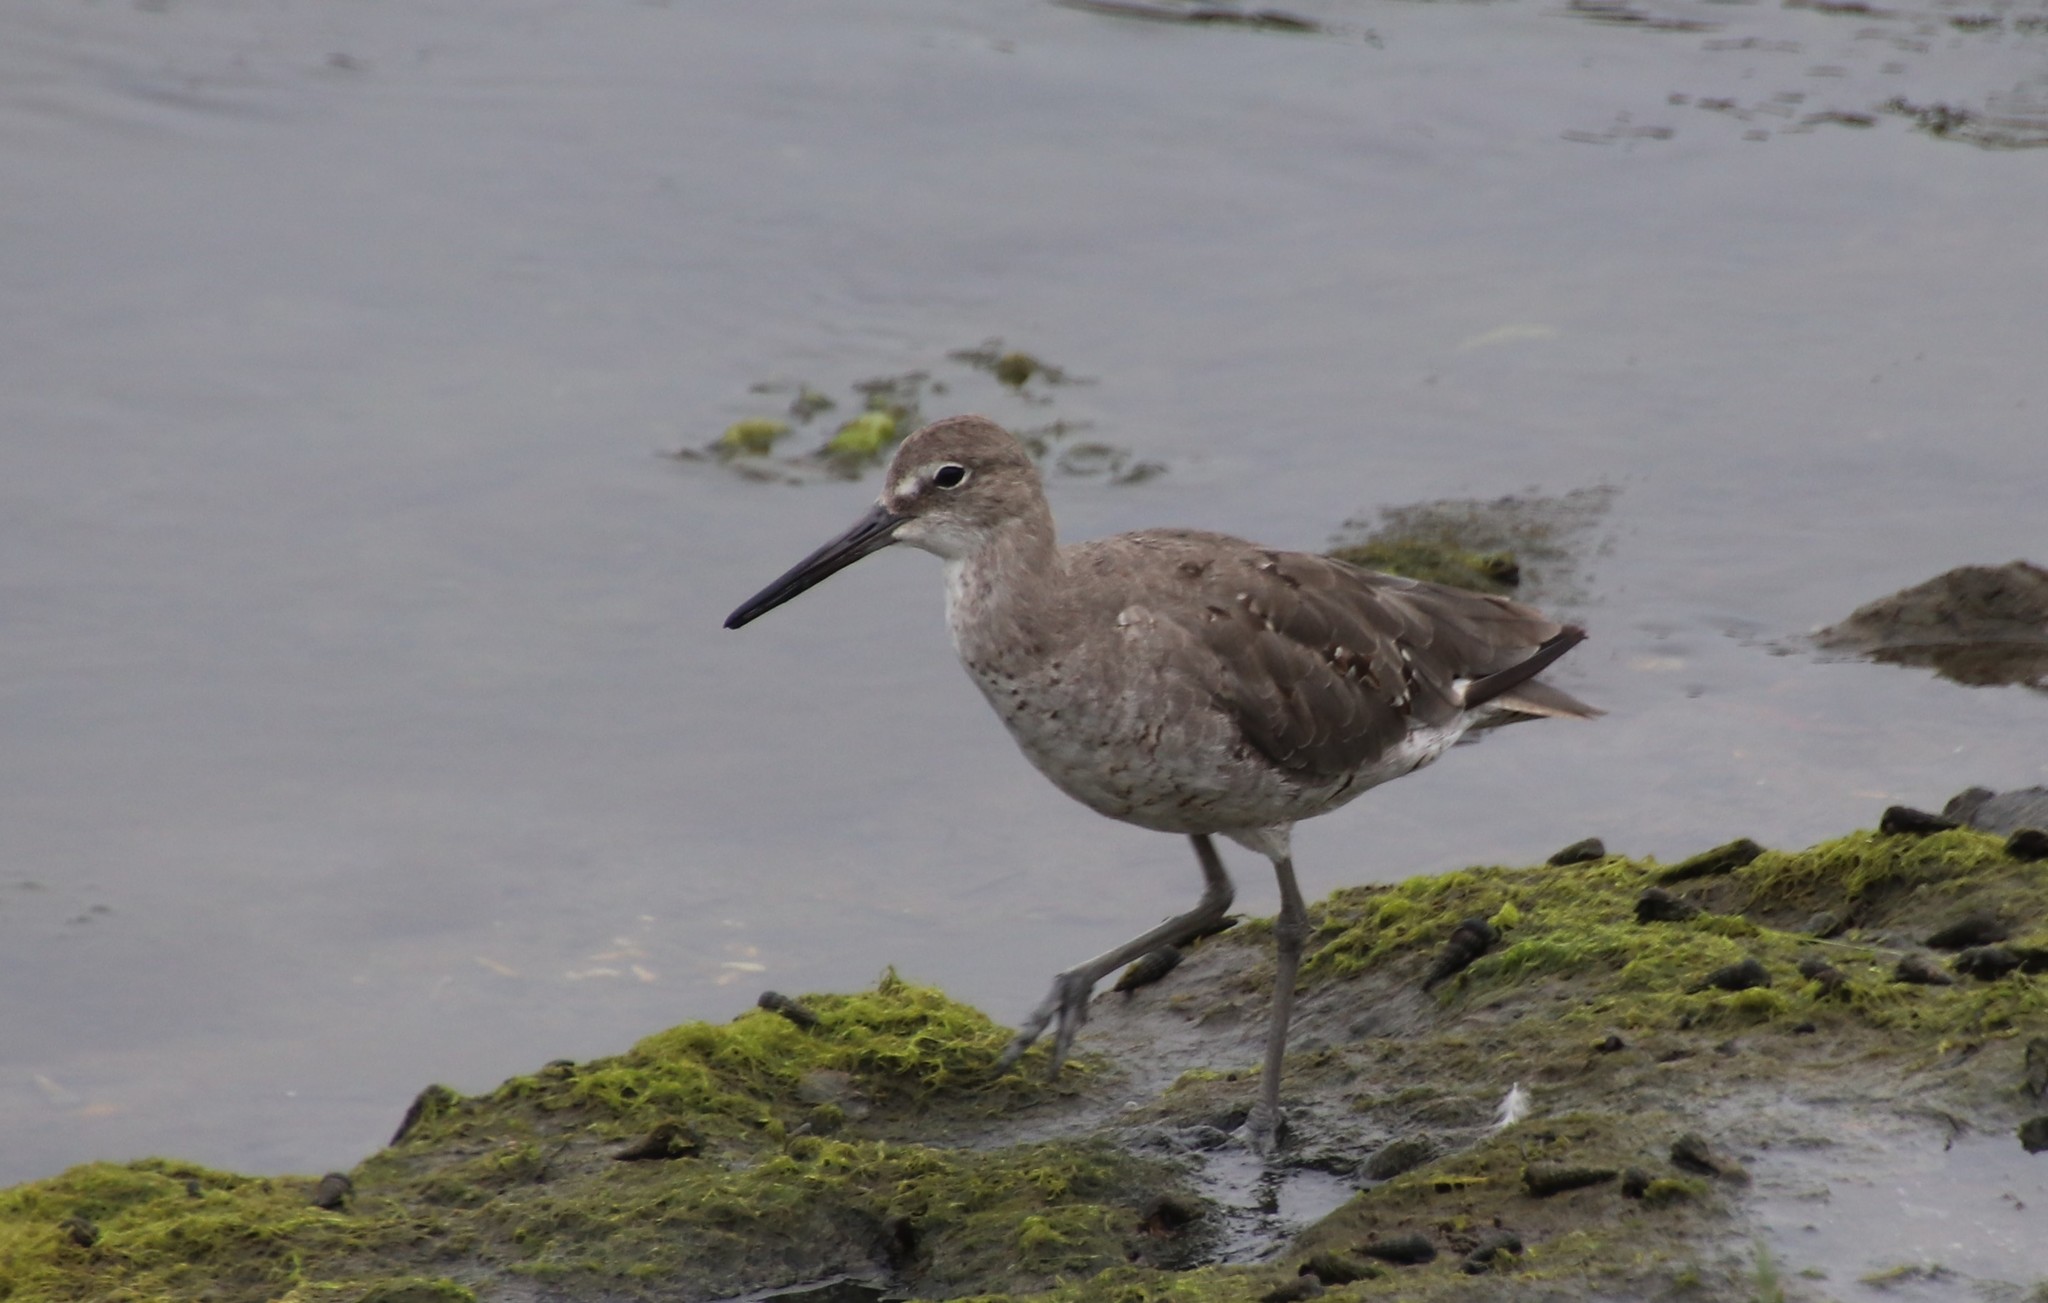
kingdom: Animalia
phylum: Chordata
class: Aves
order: Charadriiformes
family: Scolopacidae
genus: Tringa
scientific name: Tringa semipalmata
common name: Willet
